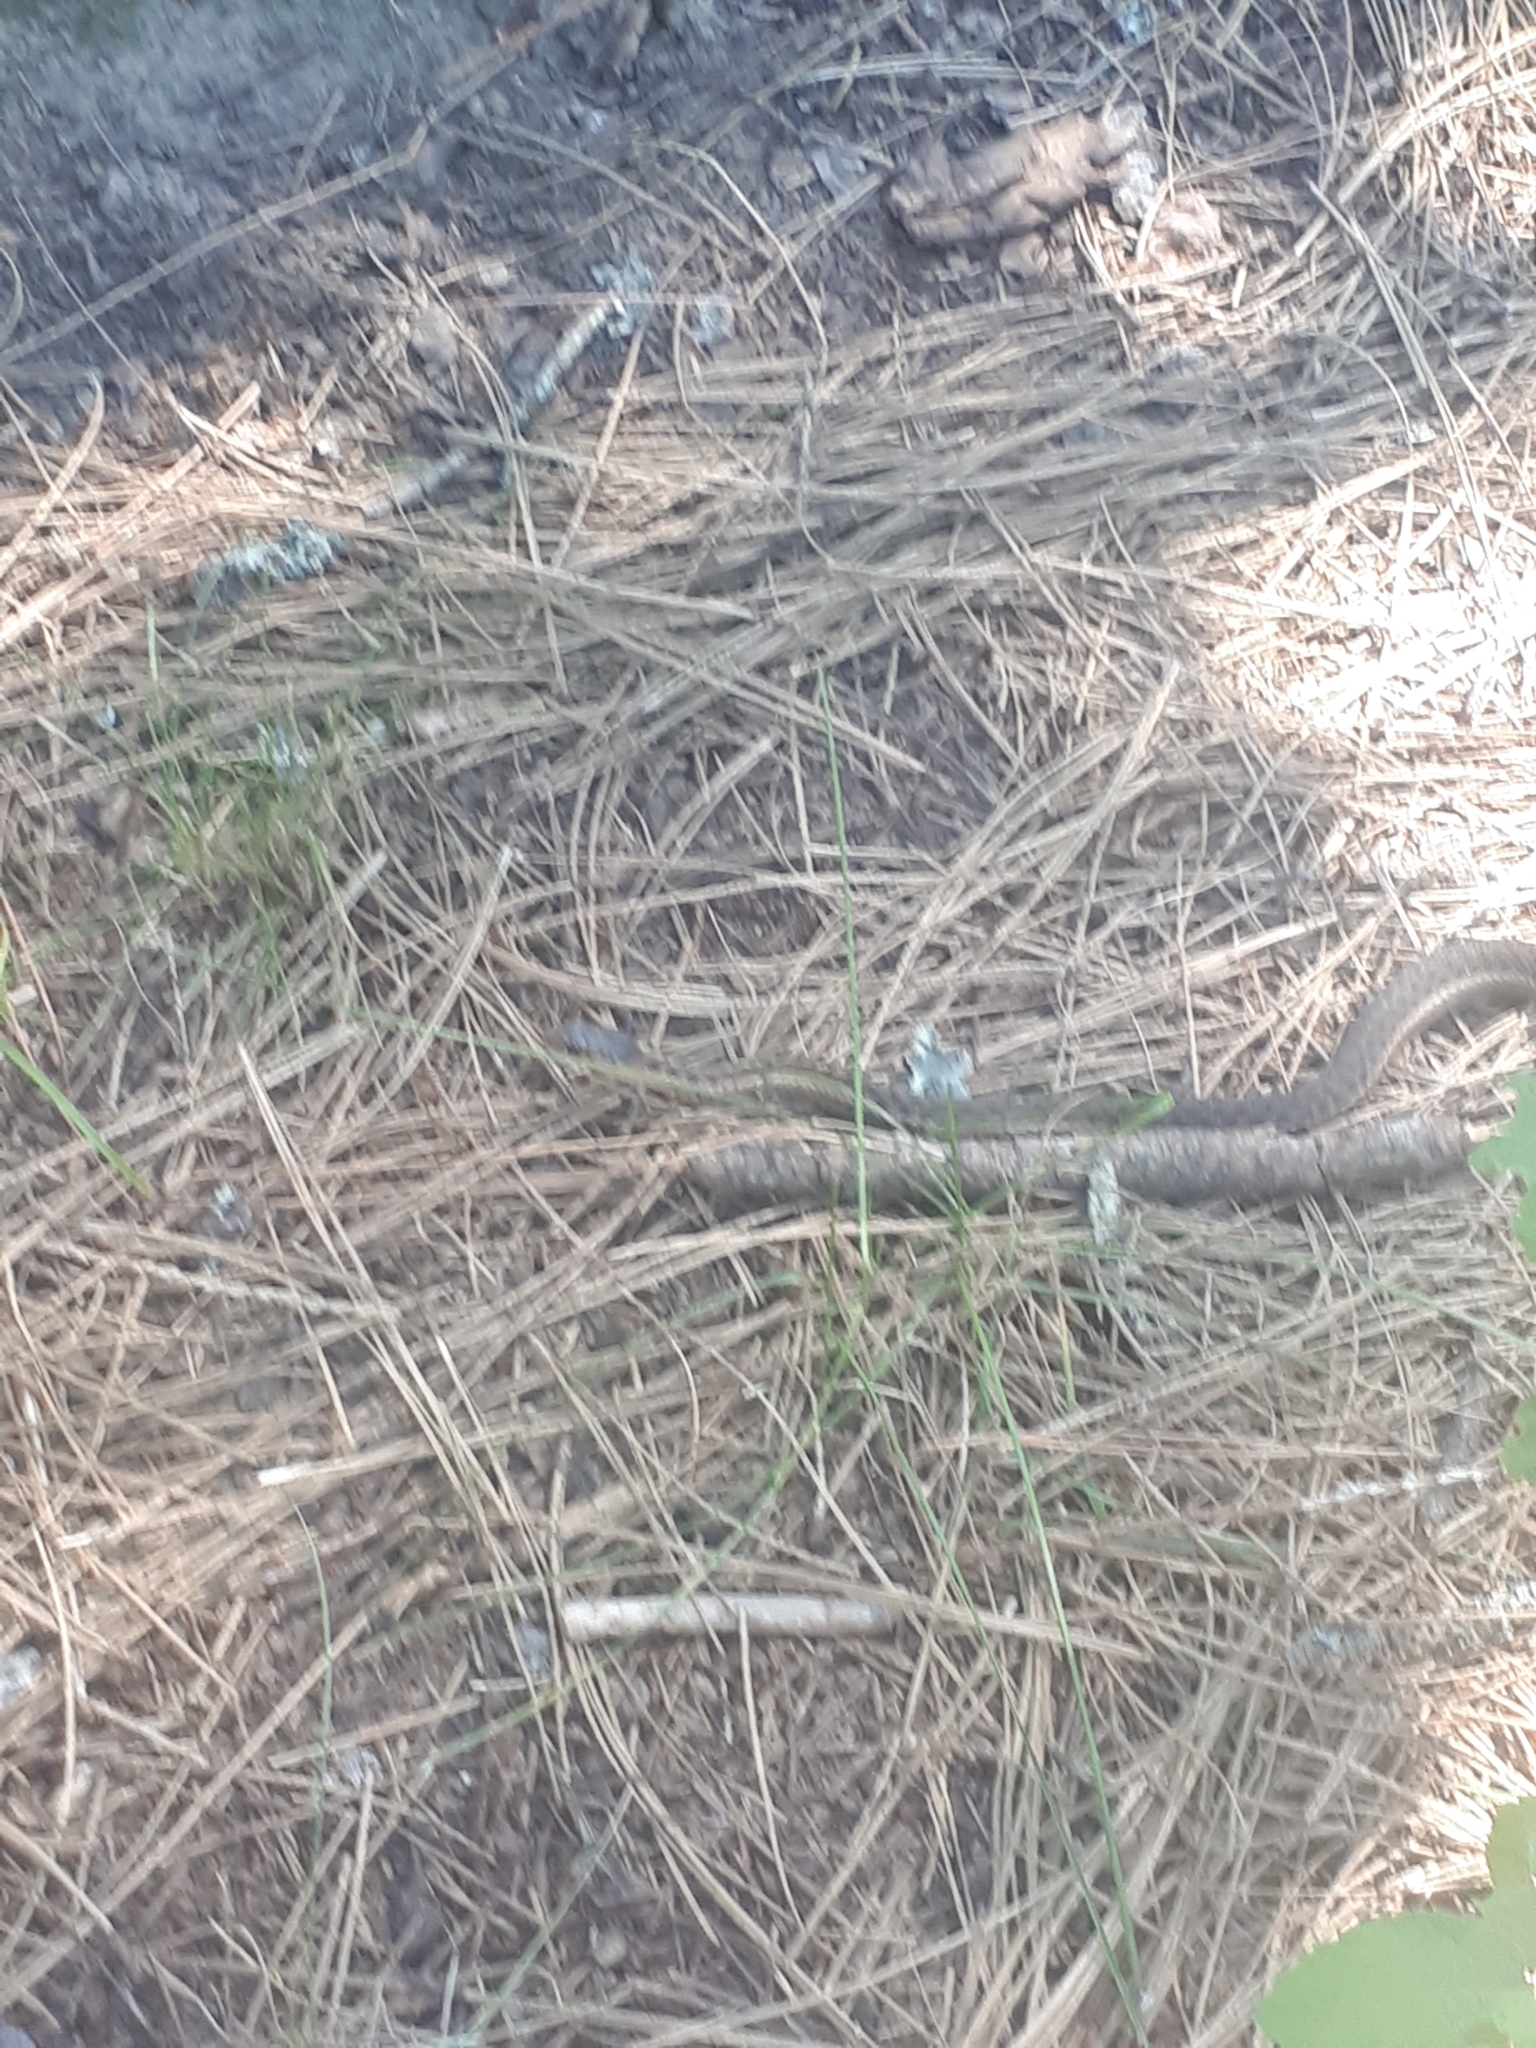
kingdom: Animalia
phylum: Chordata
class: Squamata
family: Colubridae
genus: Thamnophis
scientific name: Thamnophis elegans
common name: Western terrestrial garter snake
